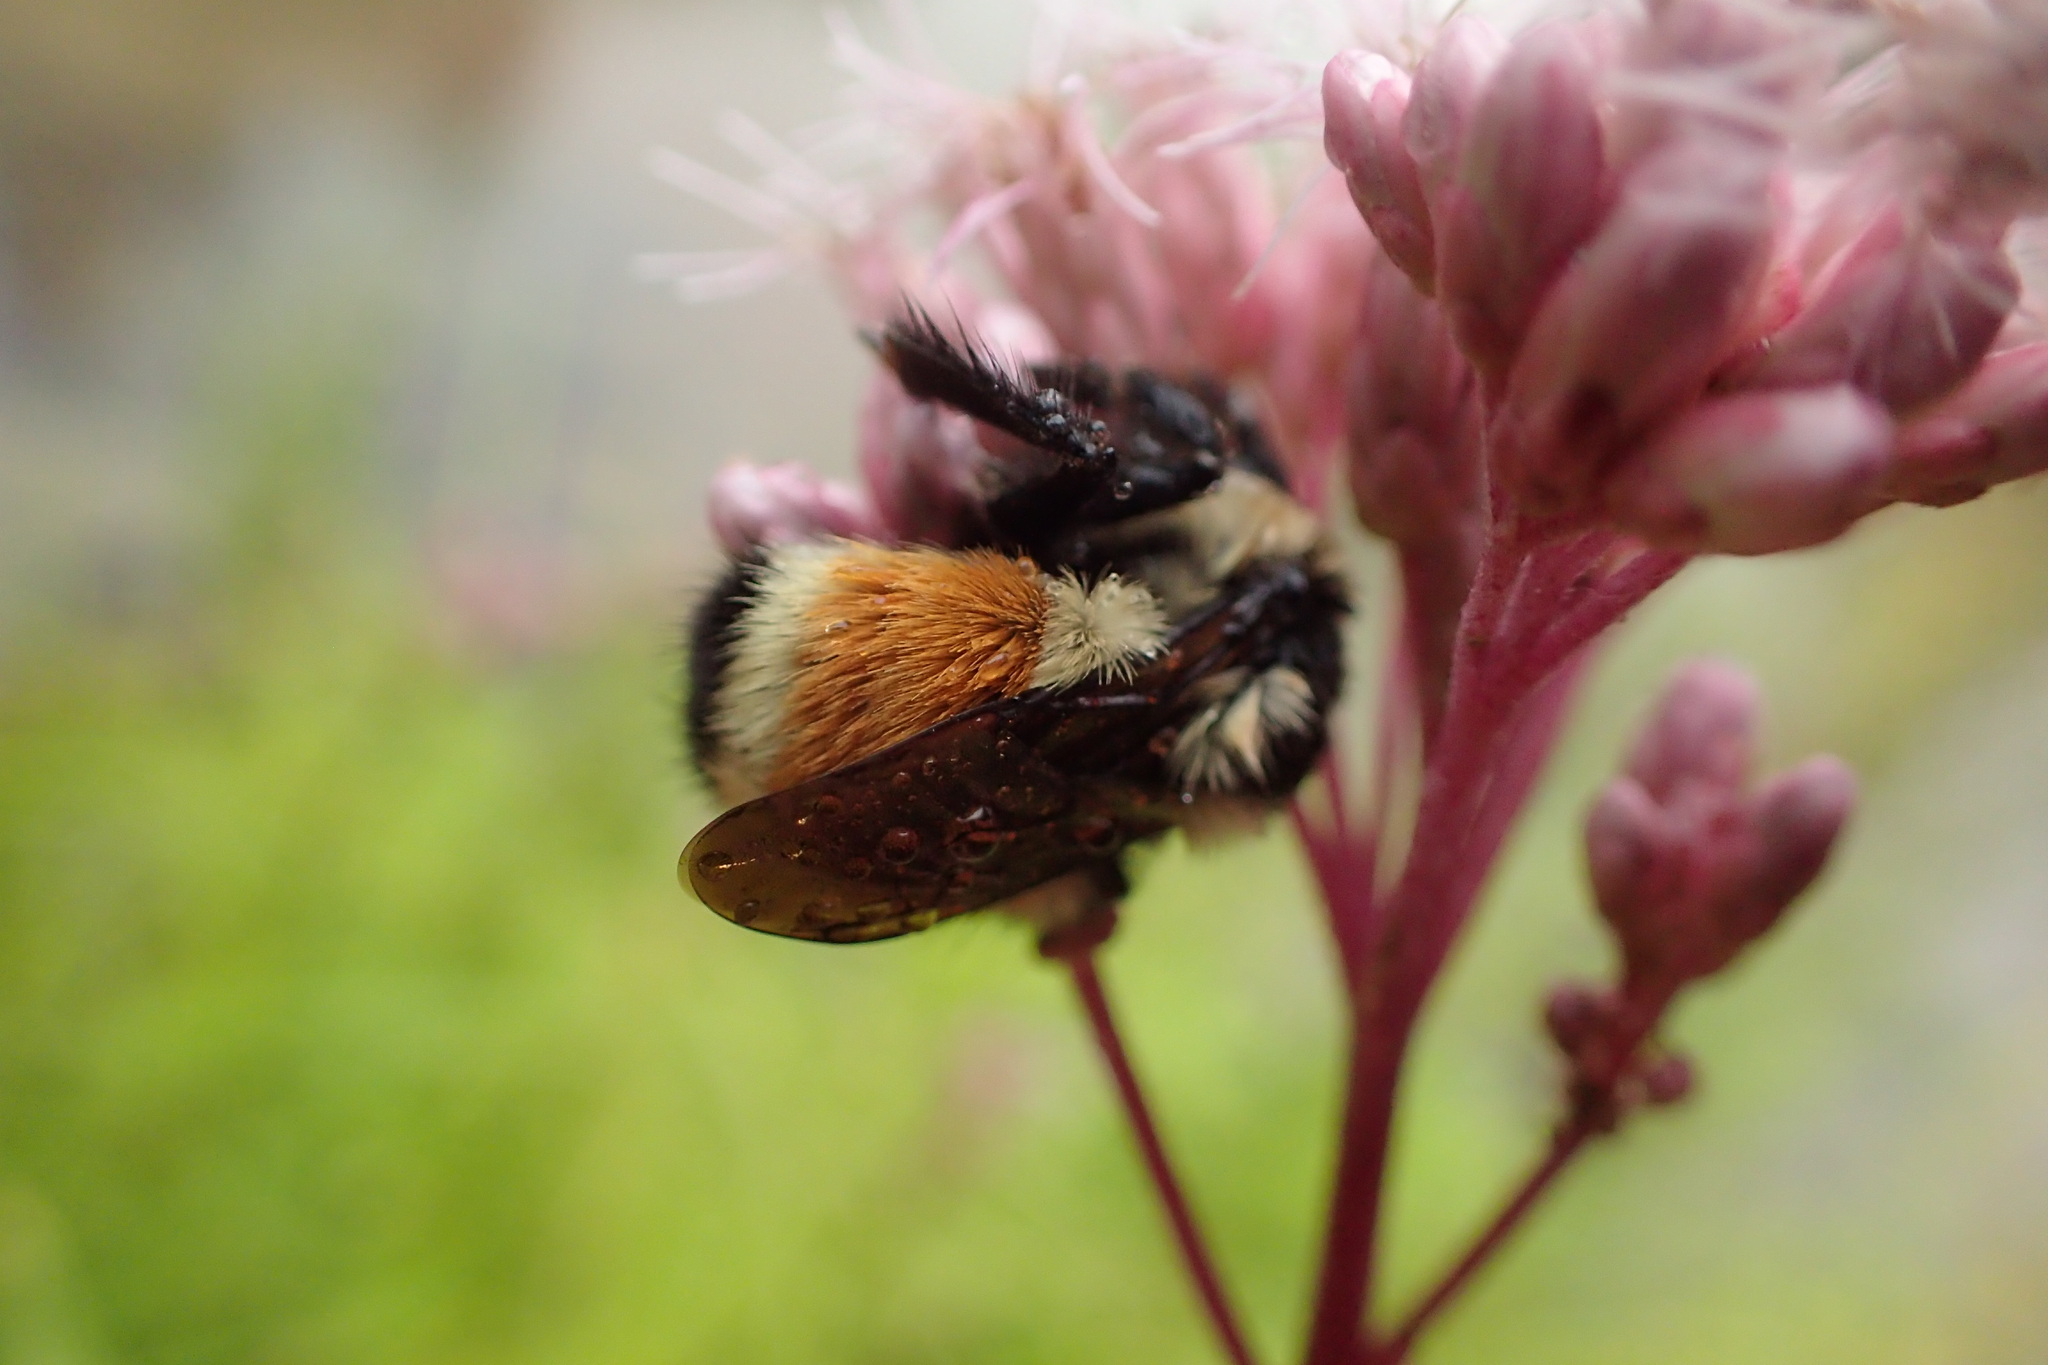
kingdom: Animalia
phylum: Arthropoda
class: Insecta
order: Hymenoptera
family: Apidae
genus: Bombus
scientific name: Bombus ternarius
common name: Tri-colored bumble bee
